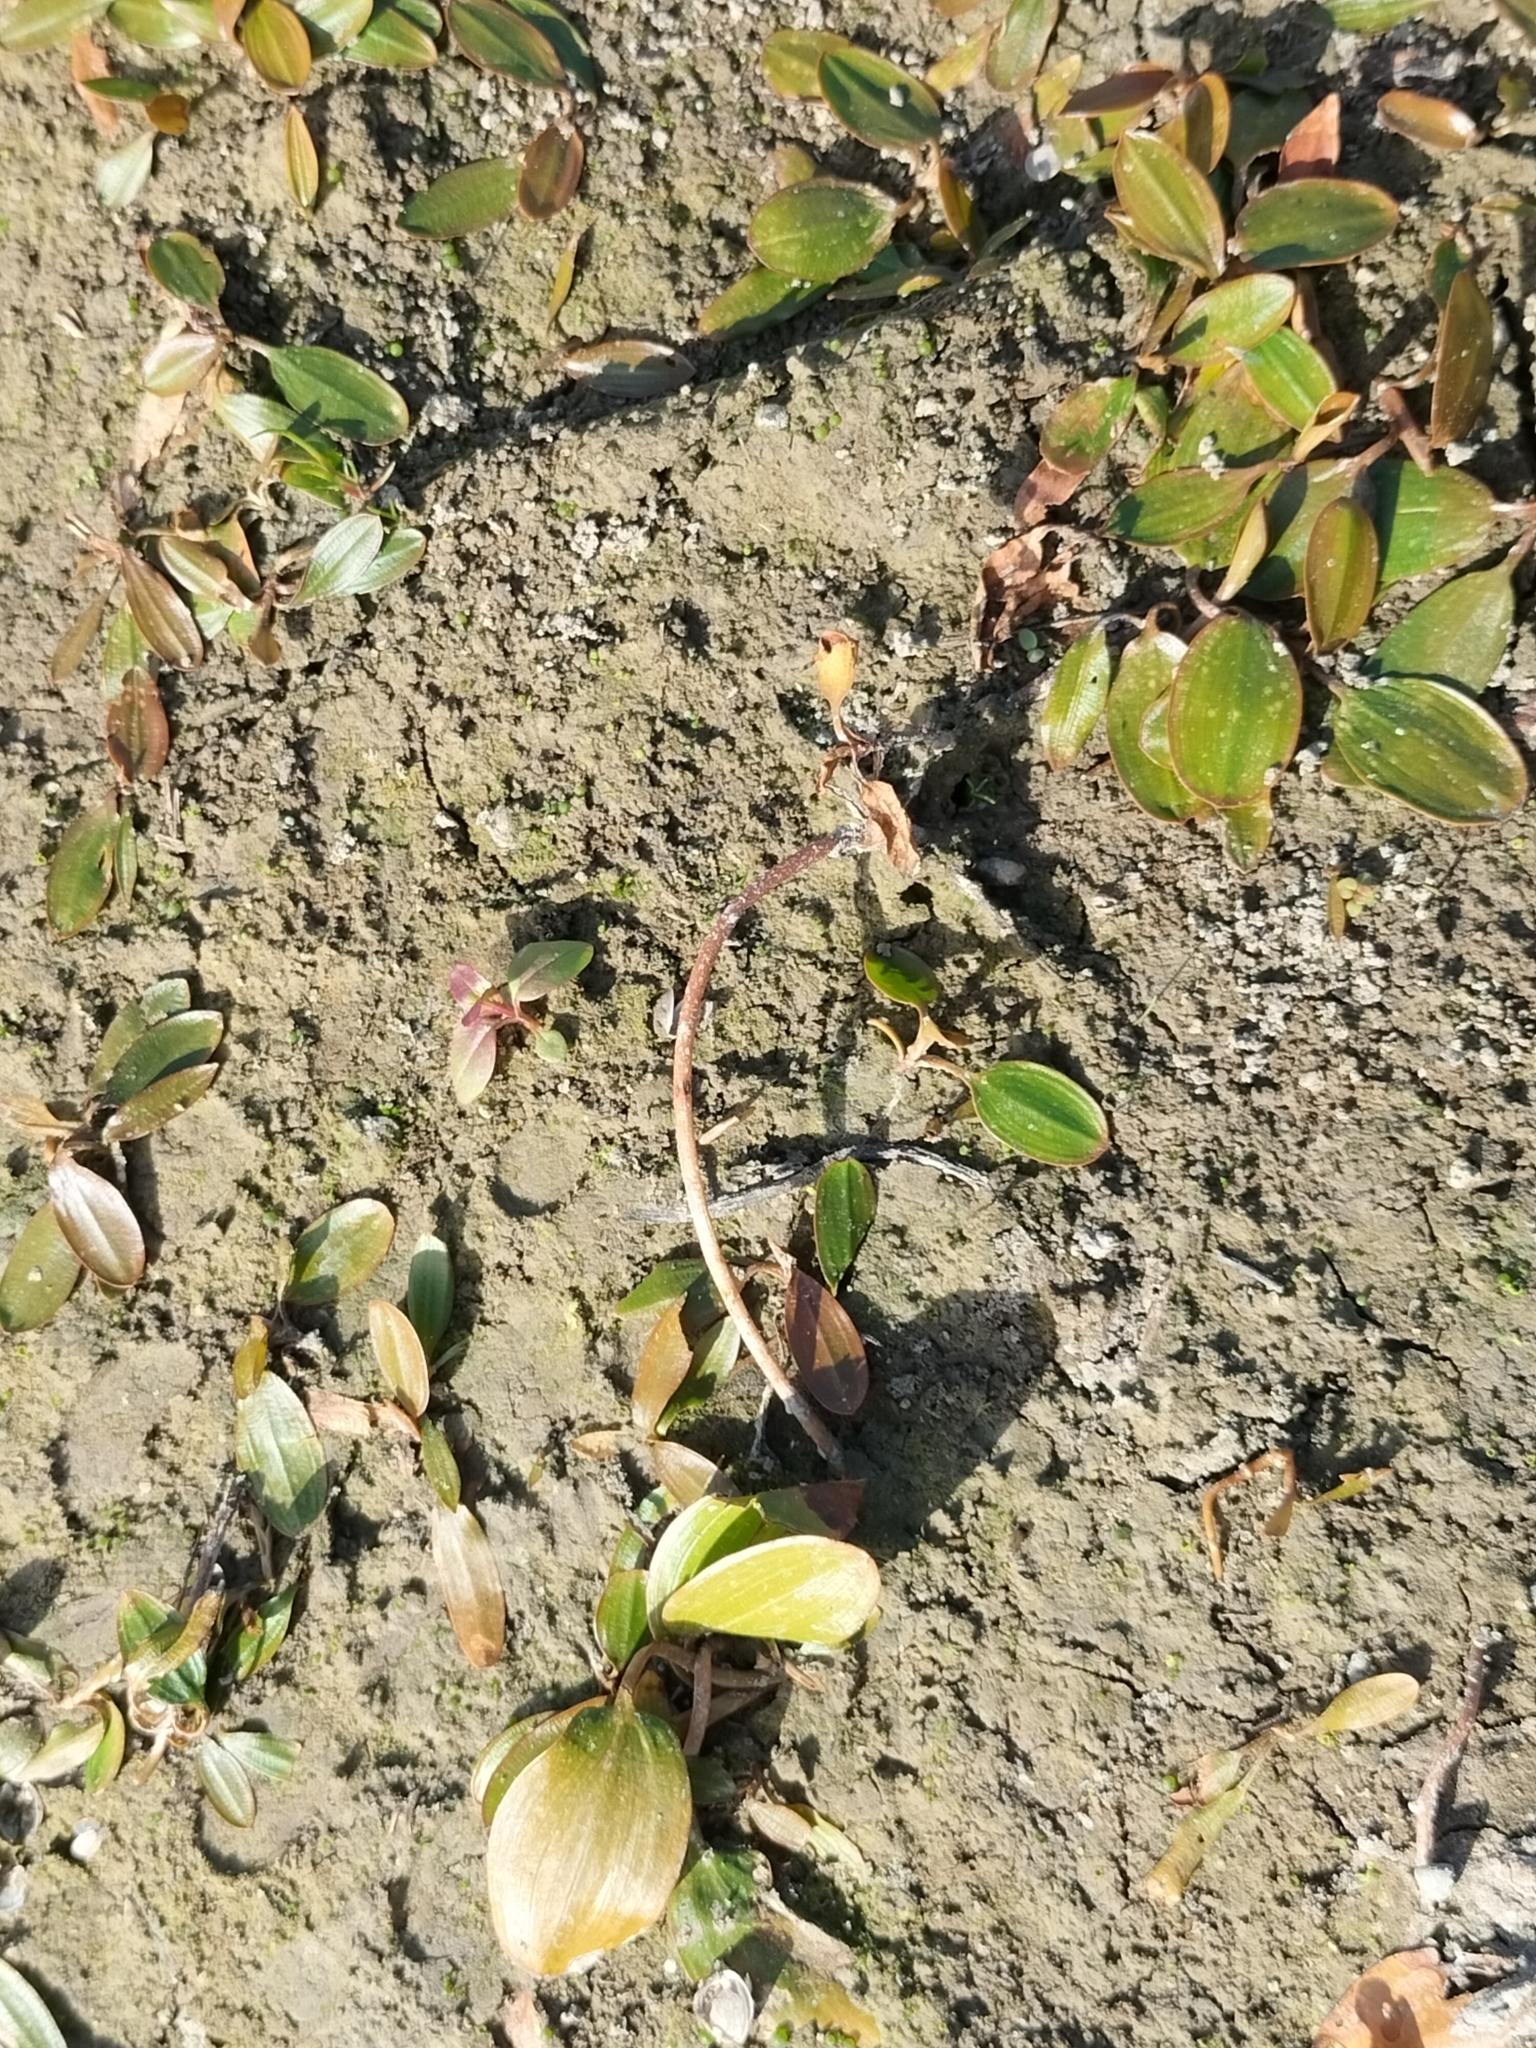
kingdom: Plantae
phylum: Tracheophyta
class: Liliopsida
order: Alismatales
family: Potamogetonaceae
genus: Potamogeton
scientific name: Potamogeton cheesemanii
